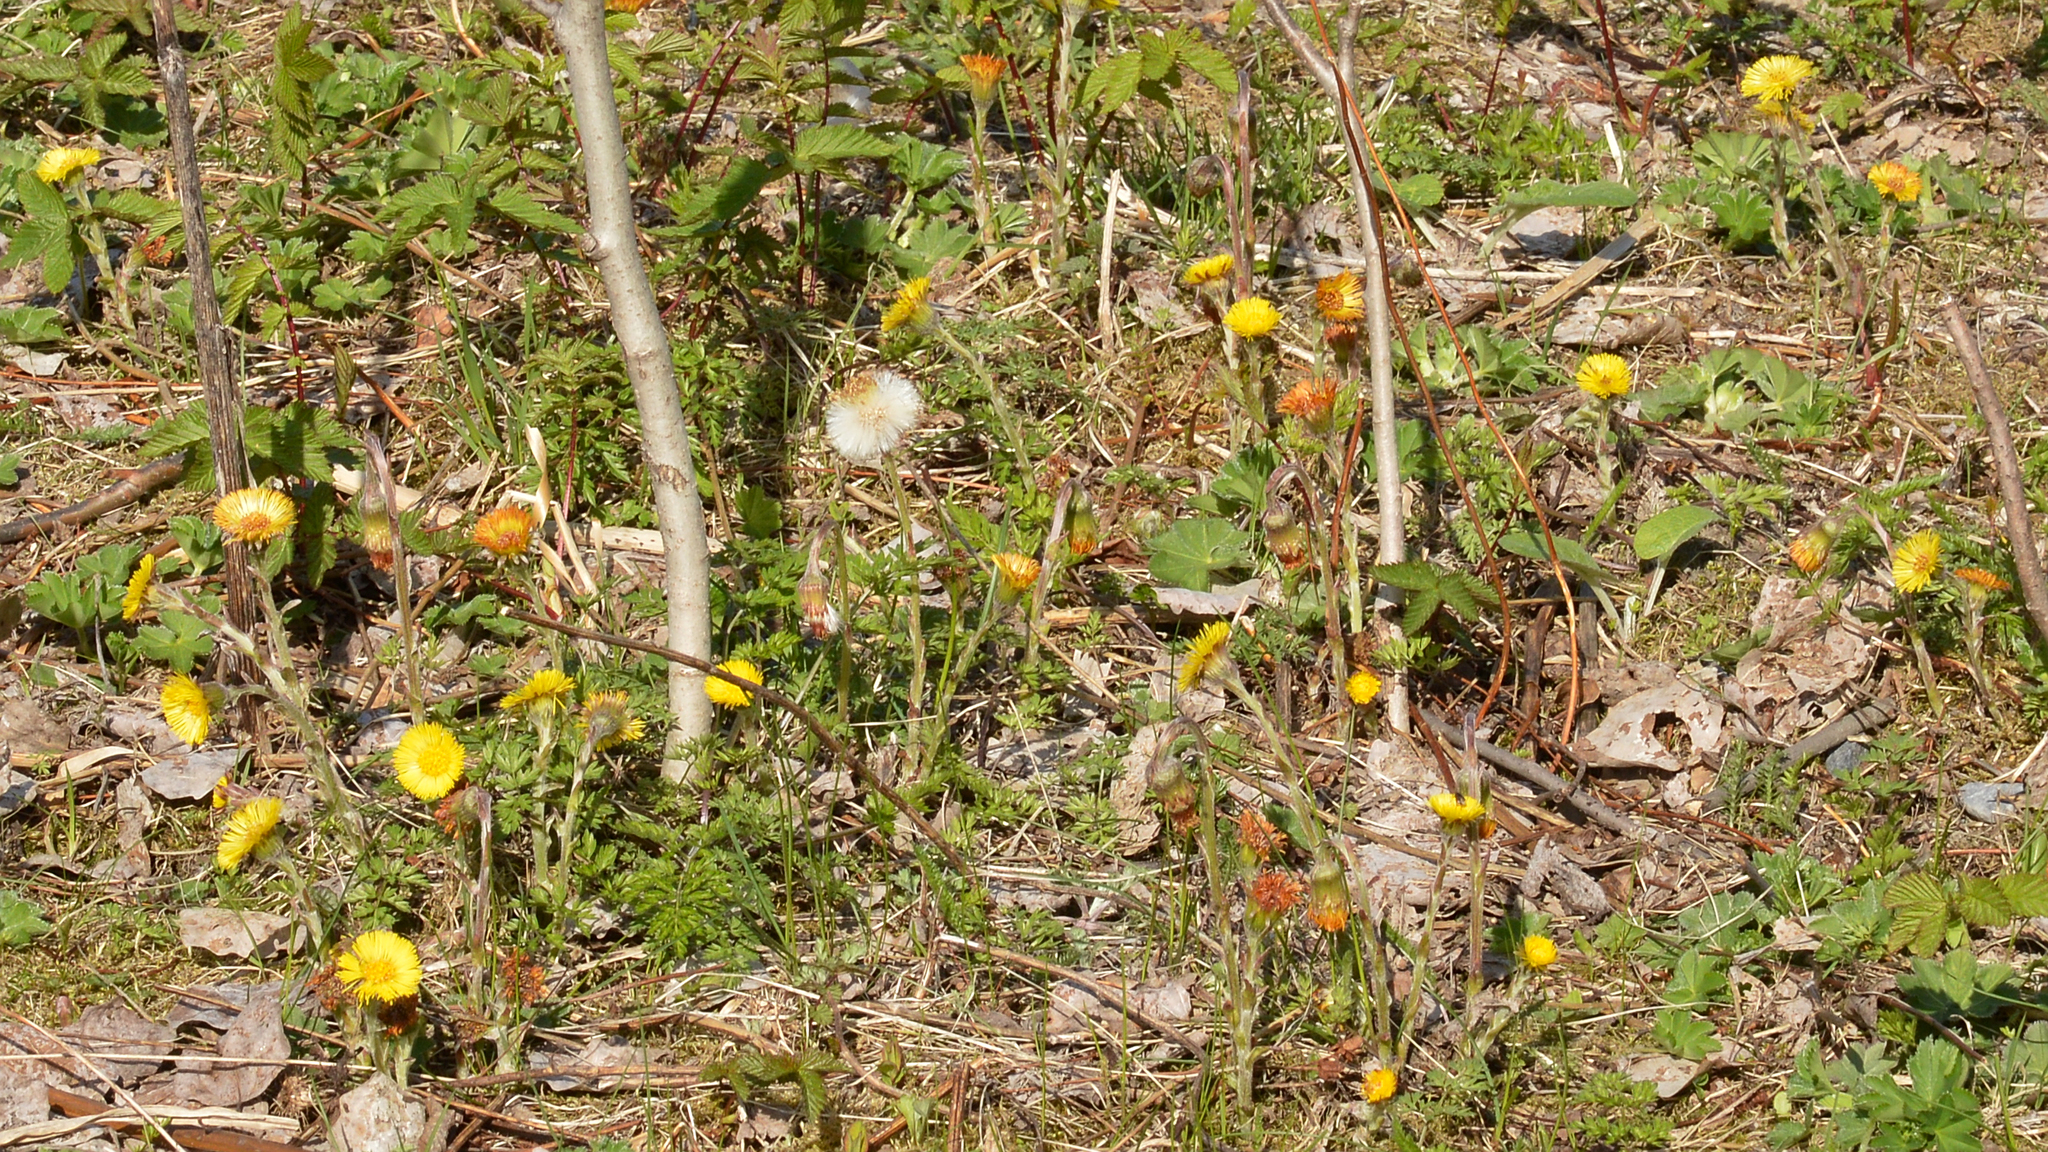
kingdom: Plantae
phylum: Tracheophyta
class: Magnoliopsida
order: Asterales
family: Asteraceae
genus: Tussilago
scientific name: Tussilago farfara
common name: Coltsfoot
